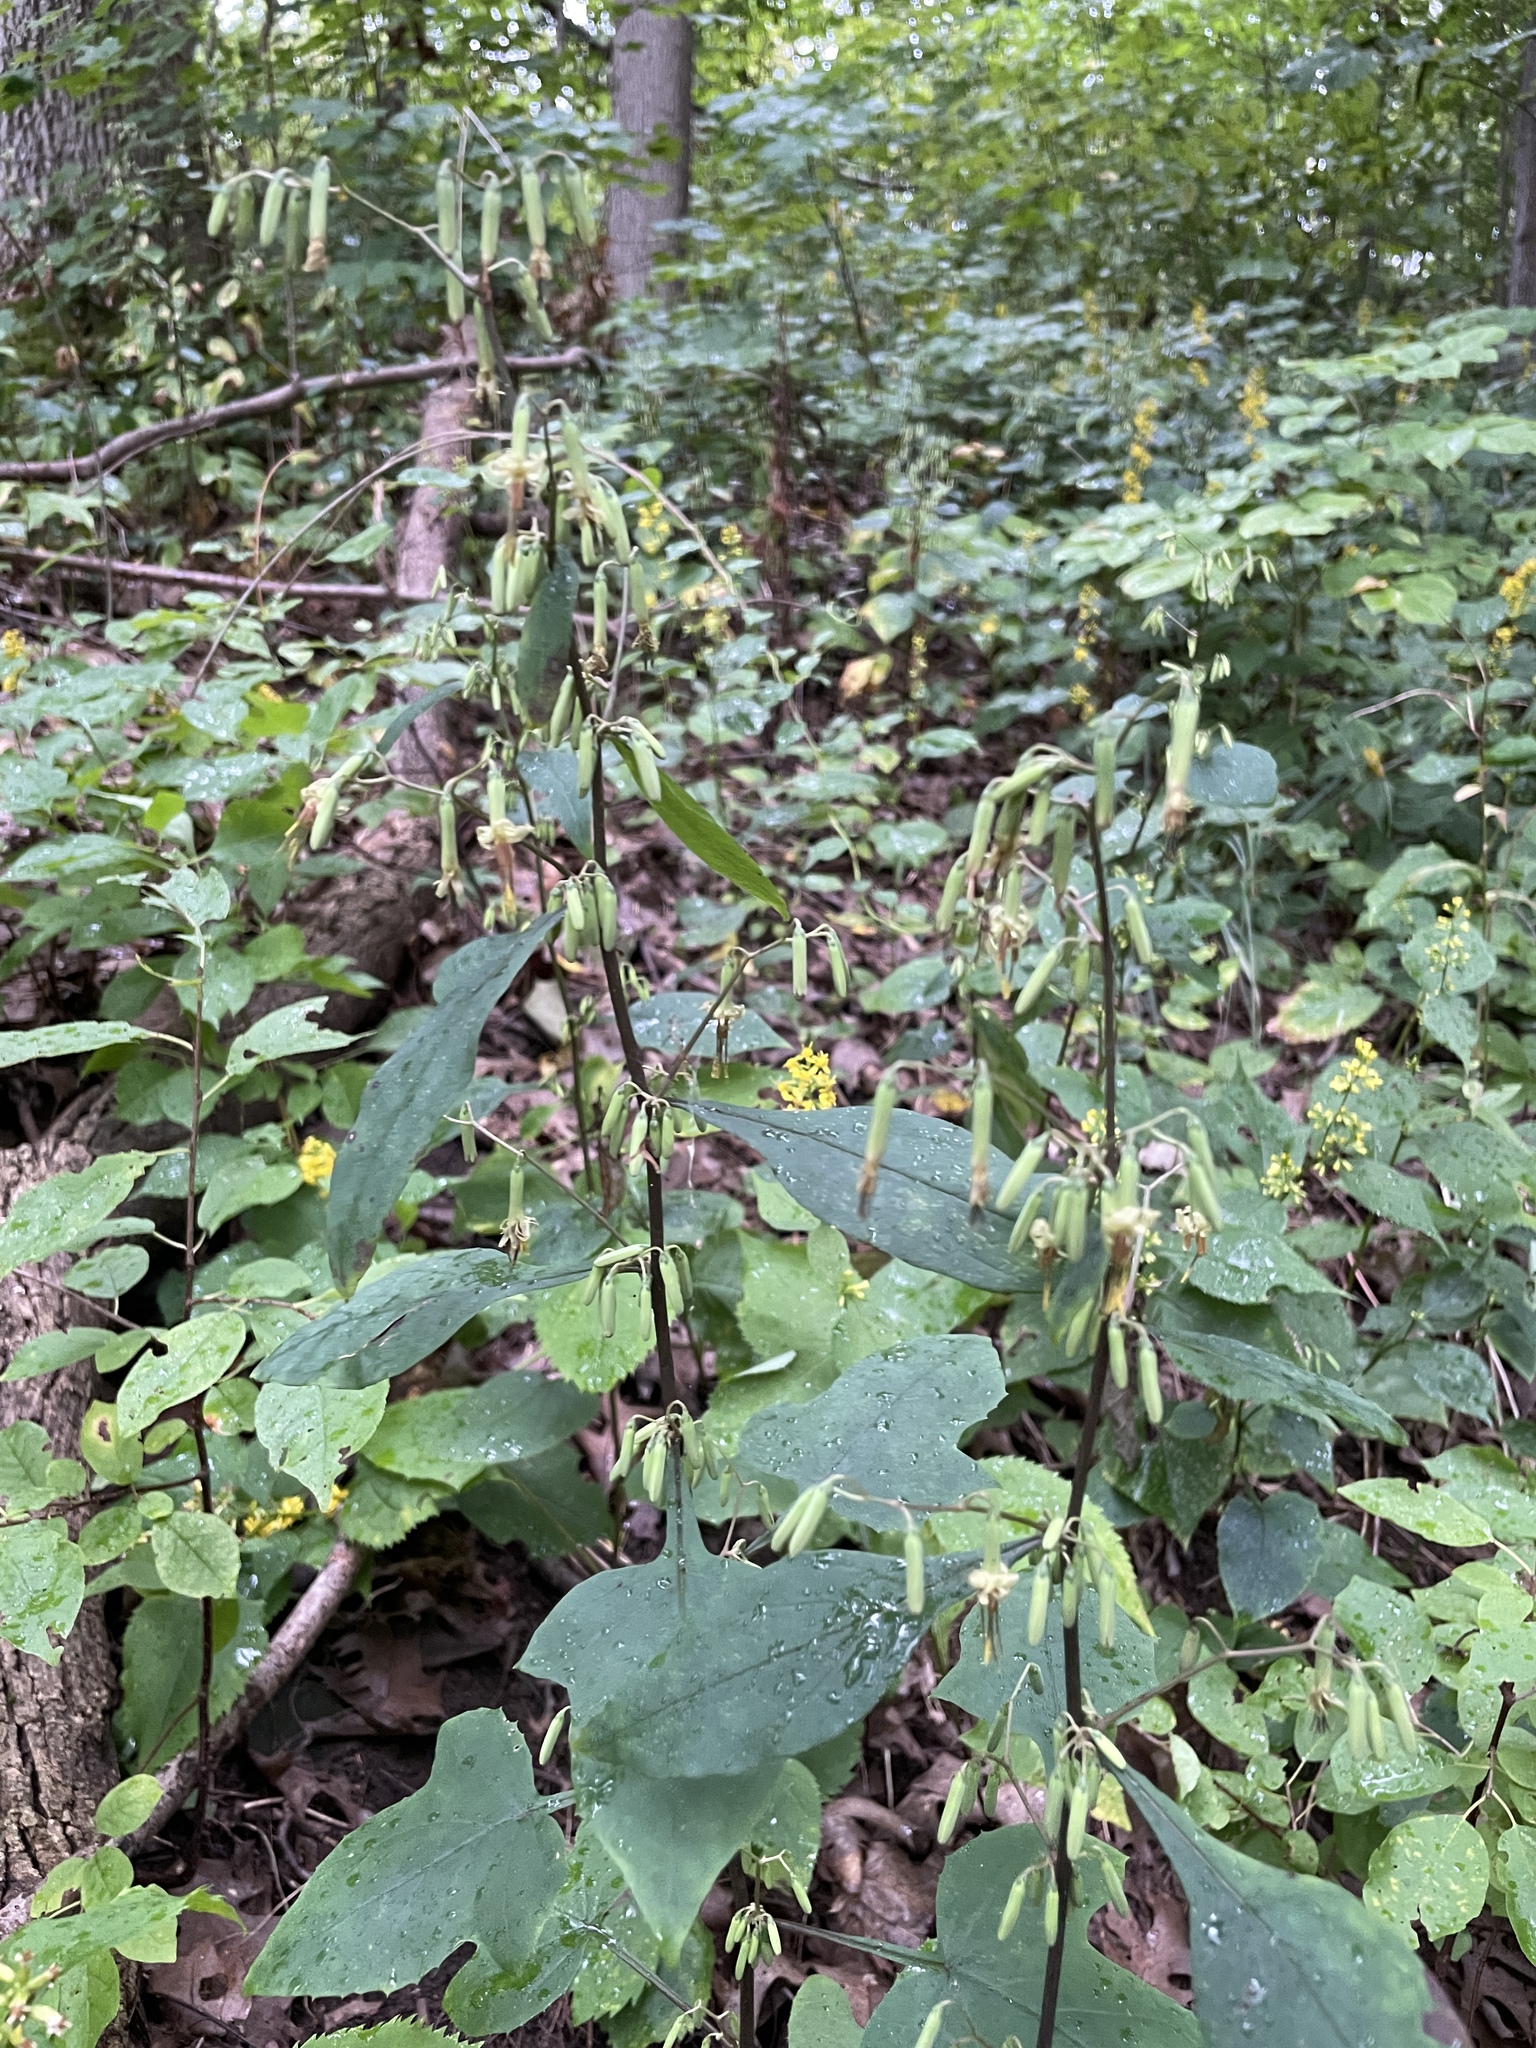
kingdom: Plantae
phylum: Tracheophyta
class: Magnoliopsida
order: Asterales
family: Asteraceae
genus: Nabalus
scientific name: Nabalus altissima
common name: Tall rattlesnakeroot
